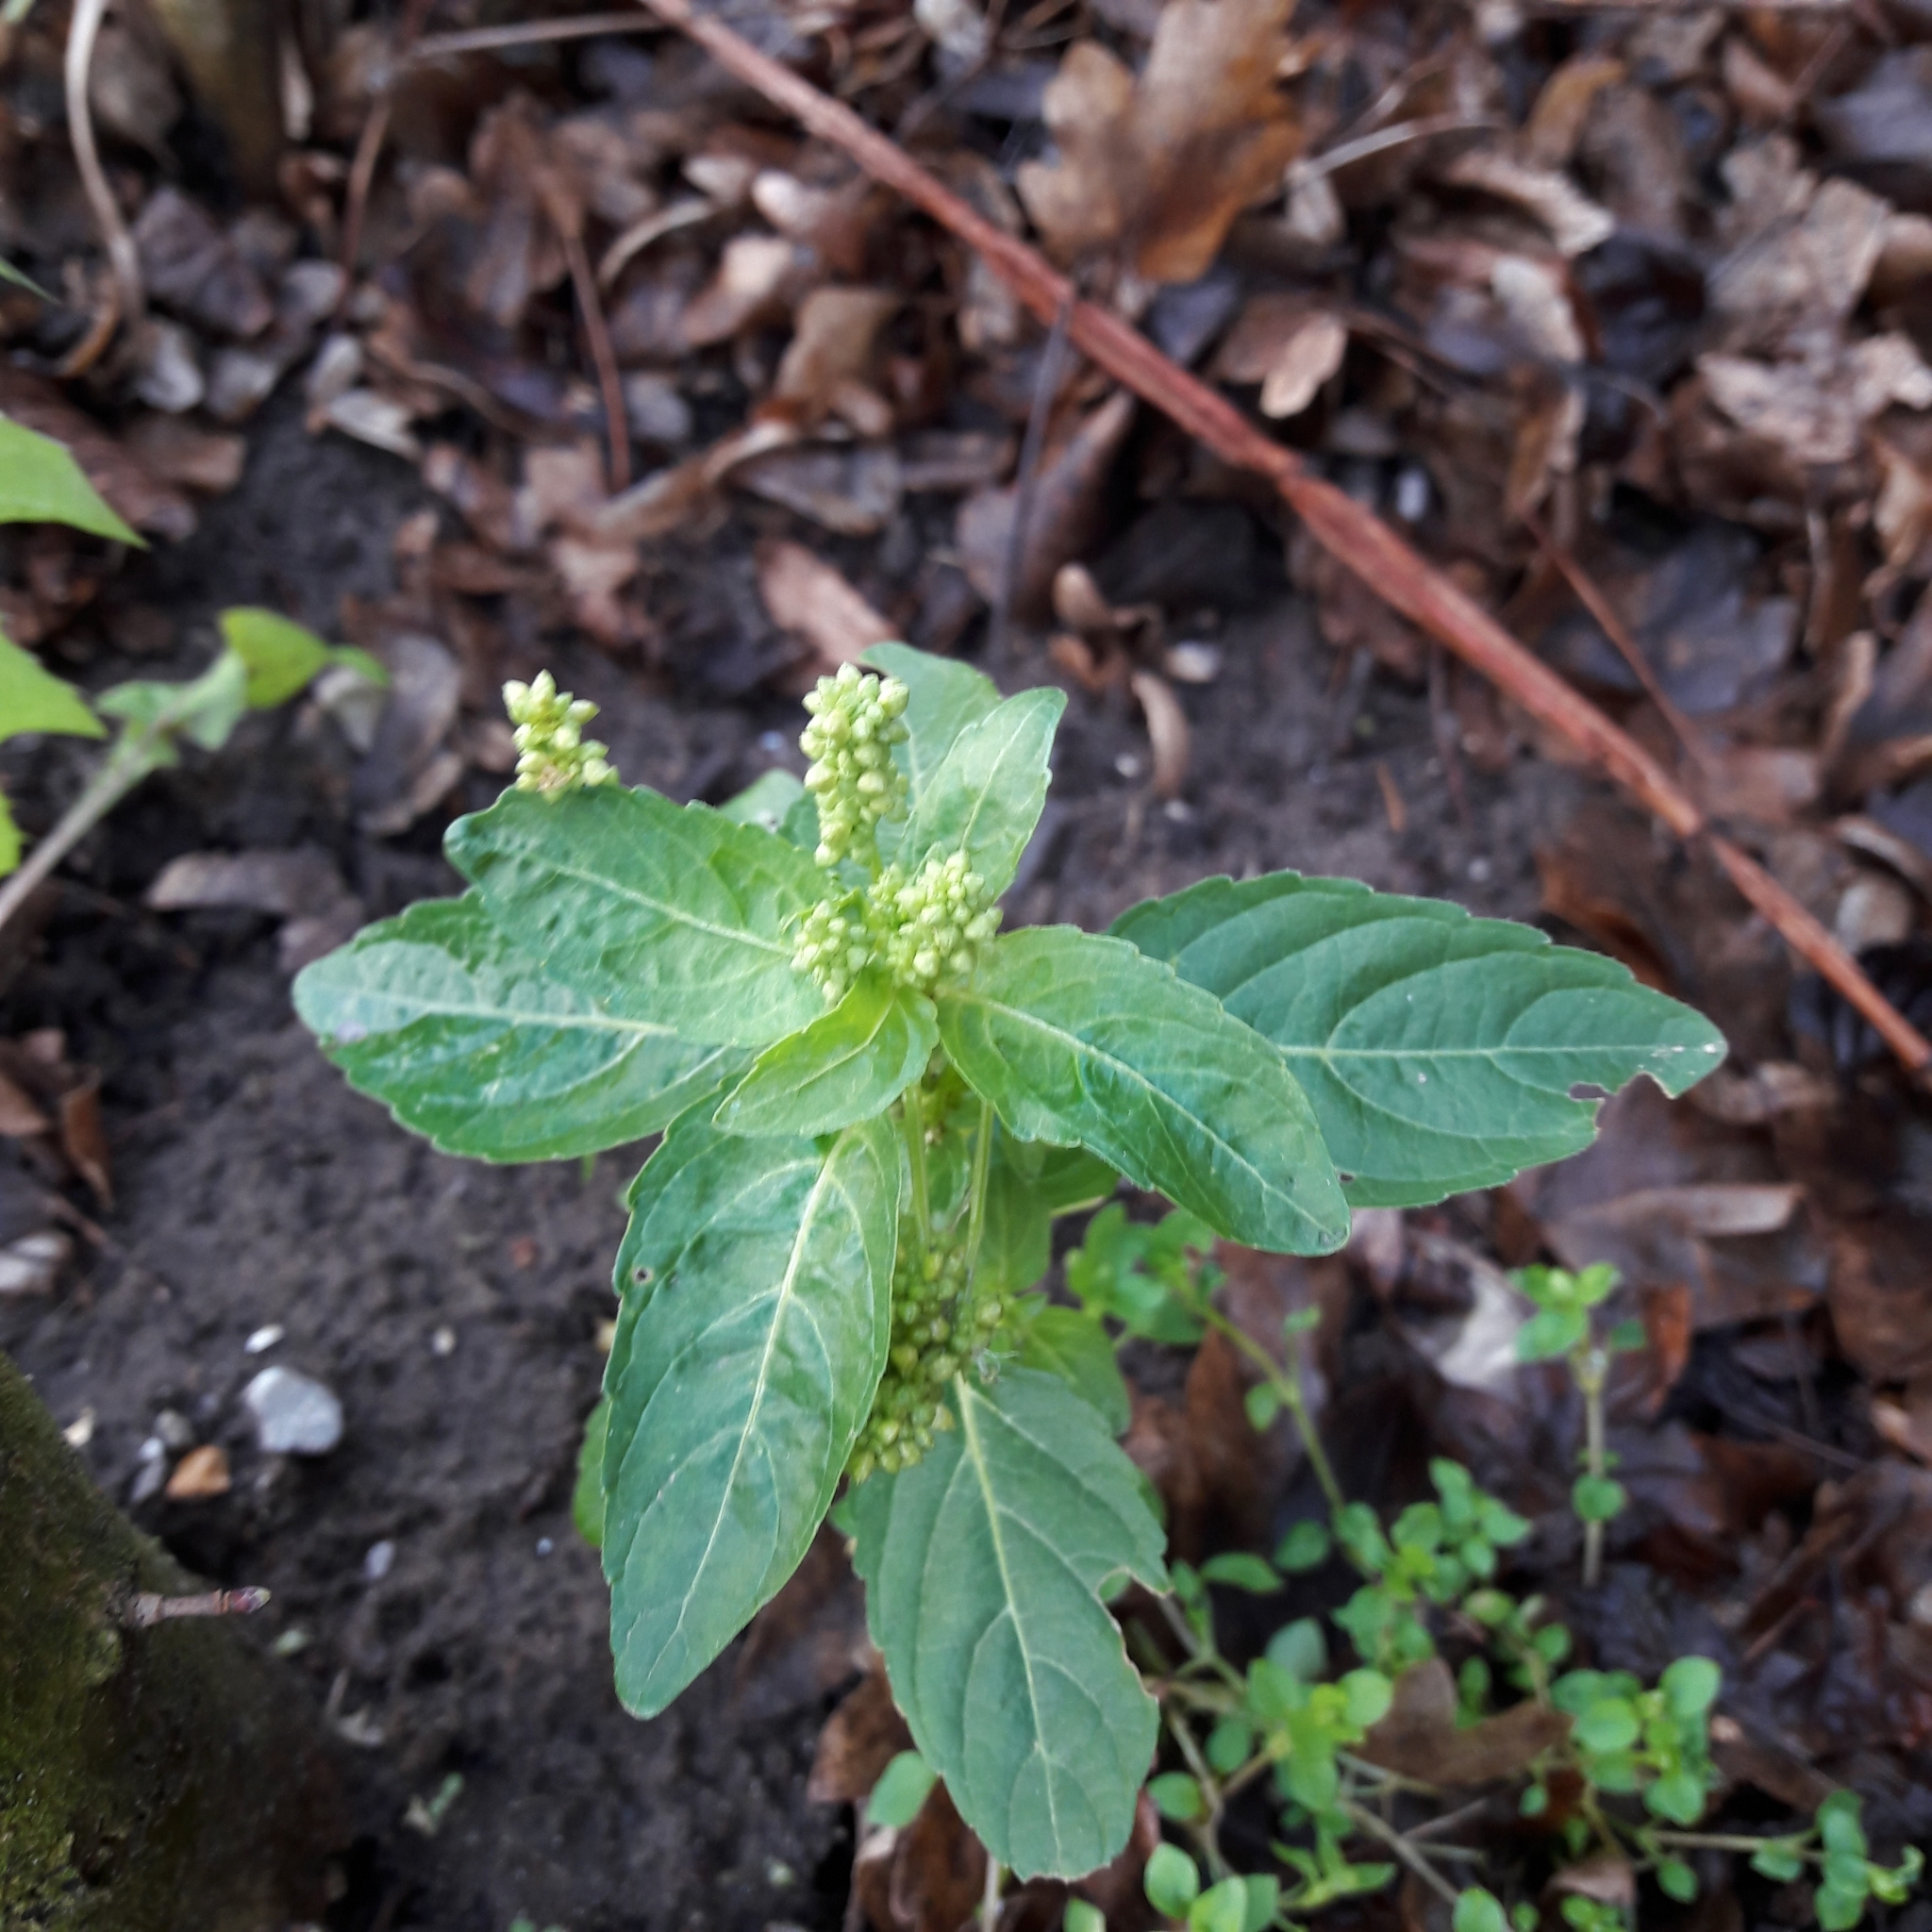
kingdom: Plantae
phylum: Tracheophyta
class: Magnoliopsida
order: Malpighiales
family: Euphorbiaceae
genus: Mercurialis
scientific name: Mercurialis annua
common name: Annual mercury
